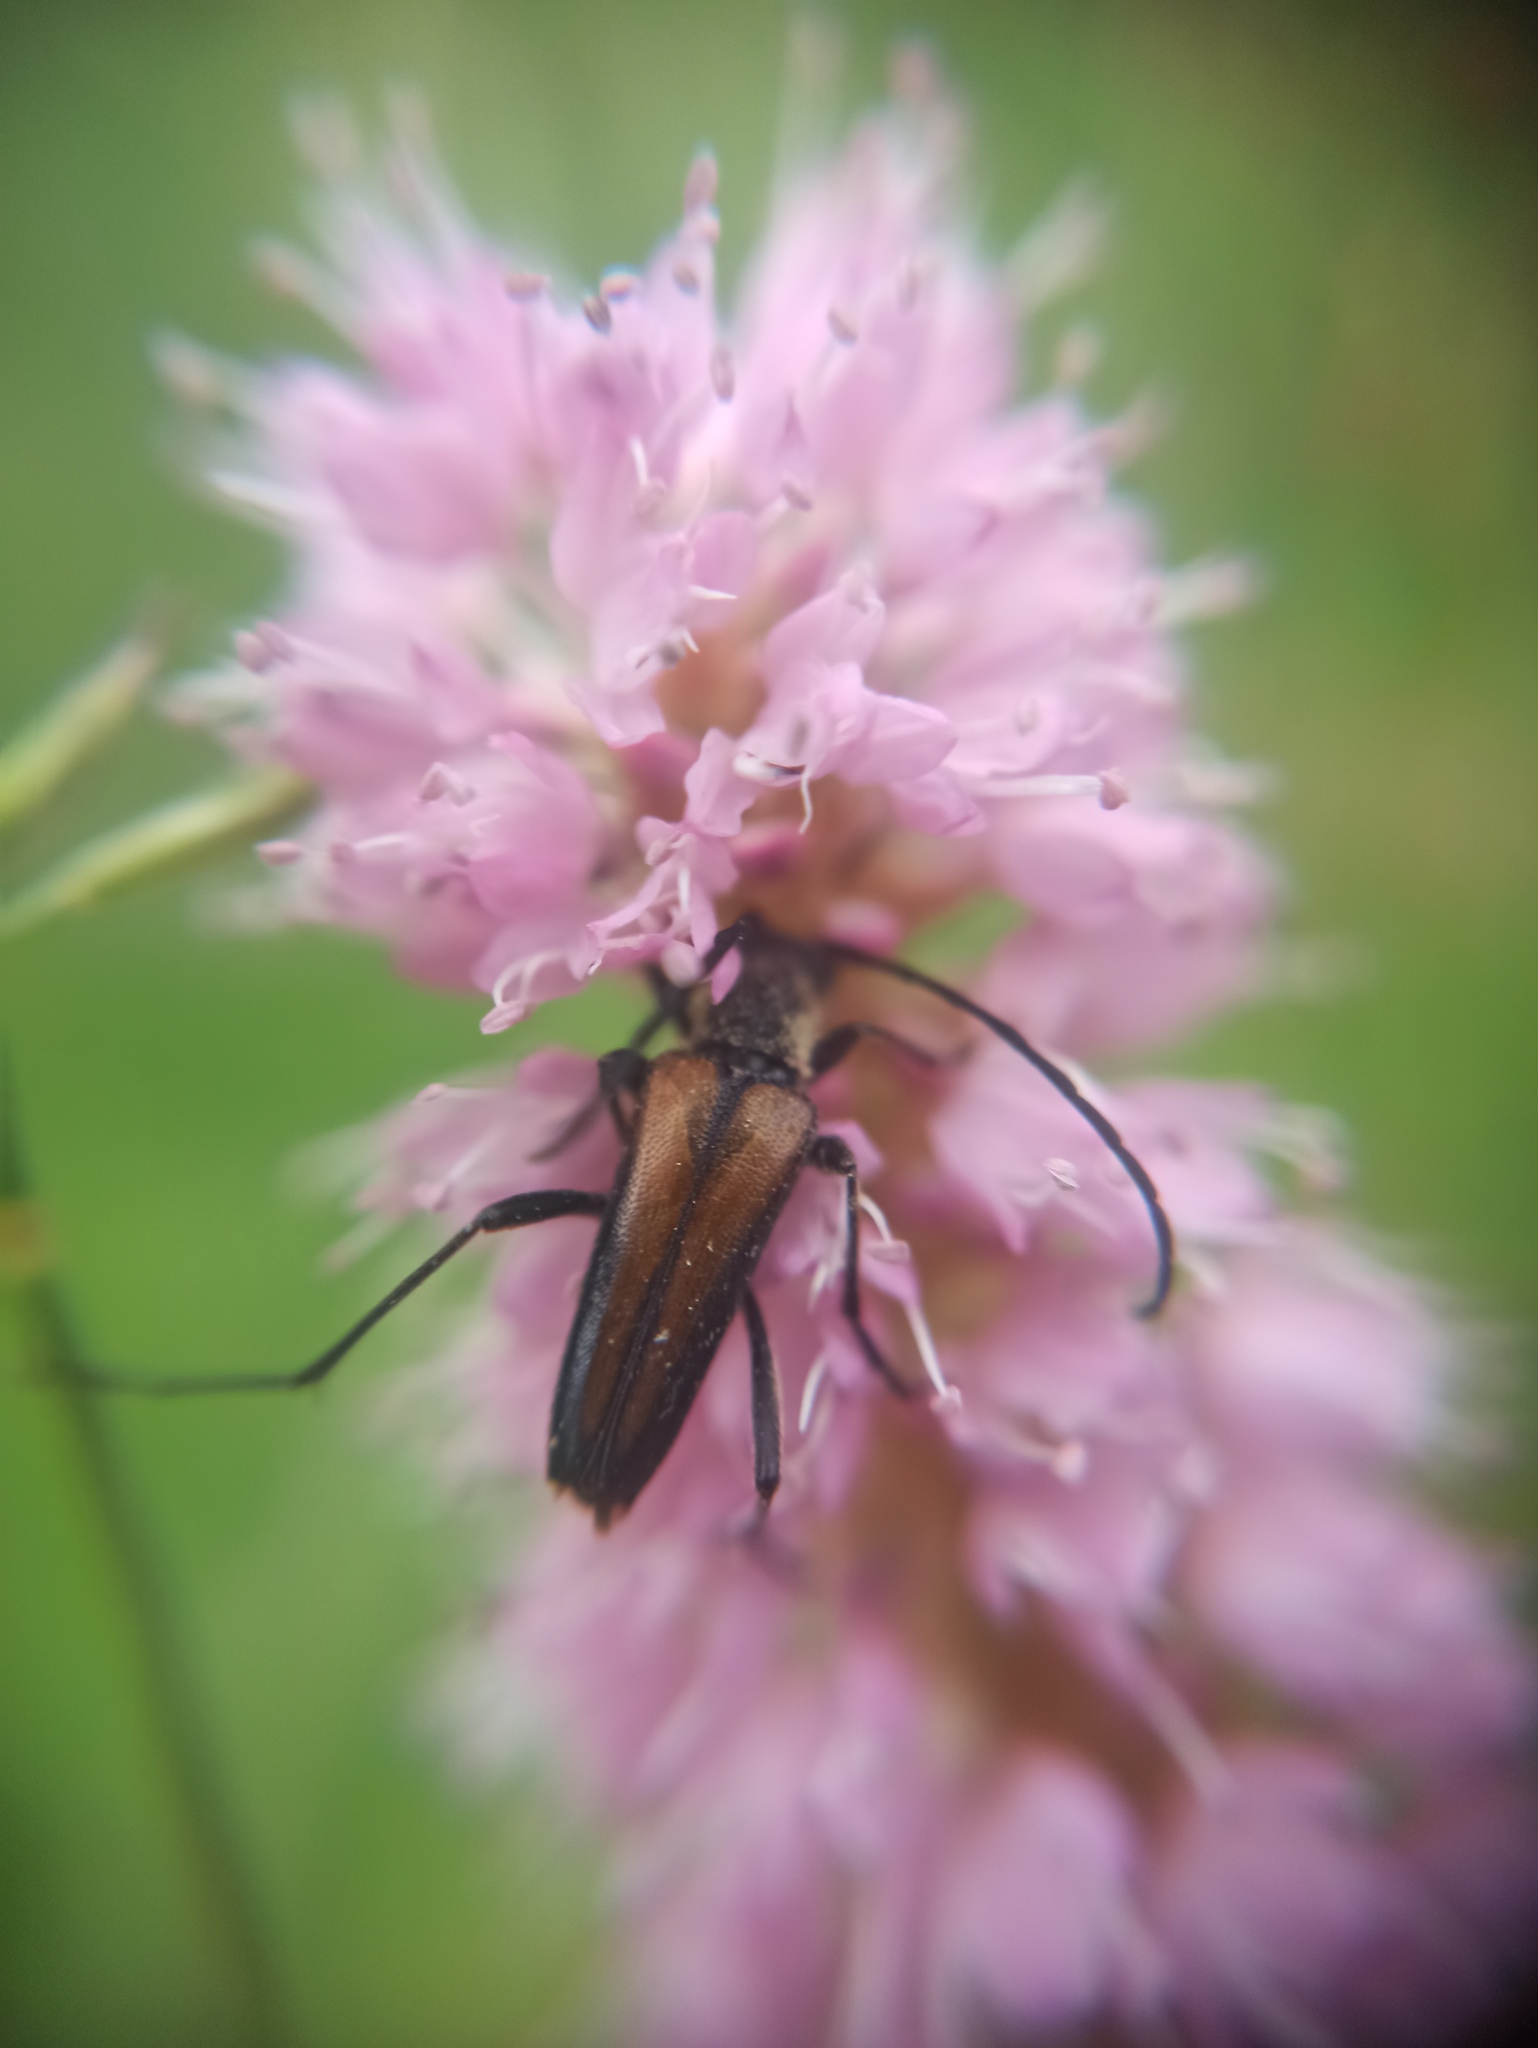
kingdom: Animalia
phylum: Arthropoda
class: Insecta
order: Coleoptera
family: Cerambycidae
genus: Anastrangalia
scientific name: Anastrangalia dubia
